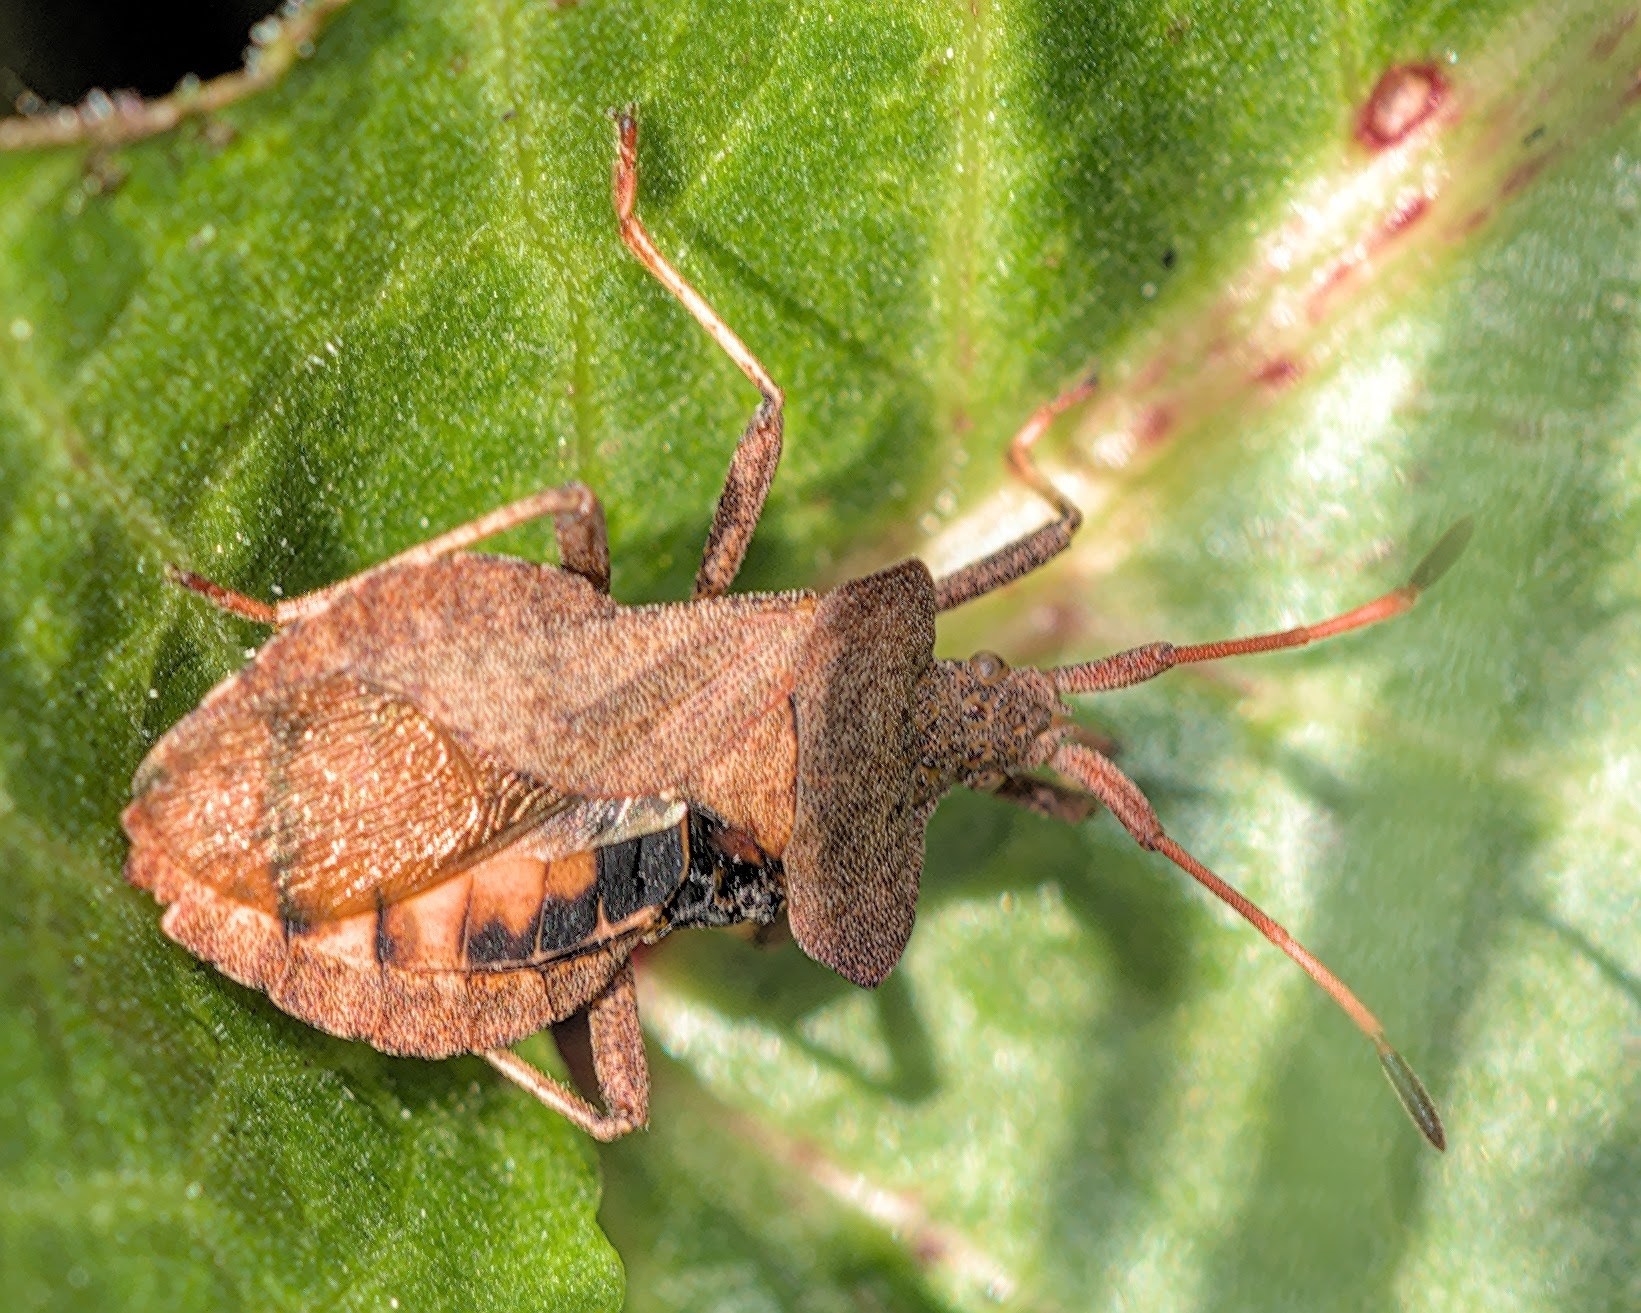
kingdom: Animalia
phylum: Arthropoda
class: Insecta
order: Hemiptera
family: Coreidae
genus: Coreus
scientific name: Coreus marginatus
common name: Dock bug
